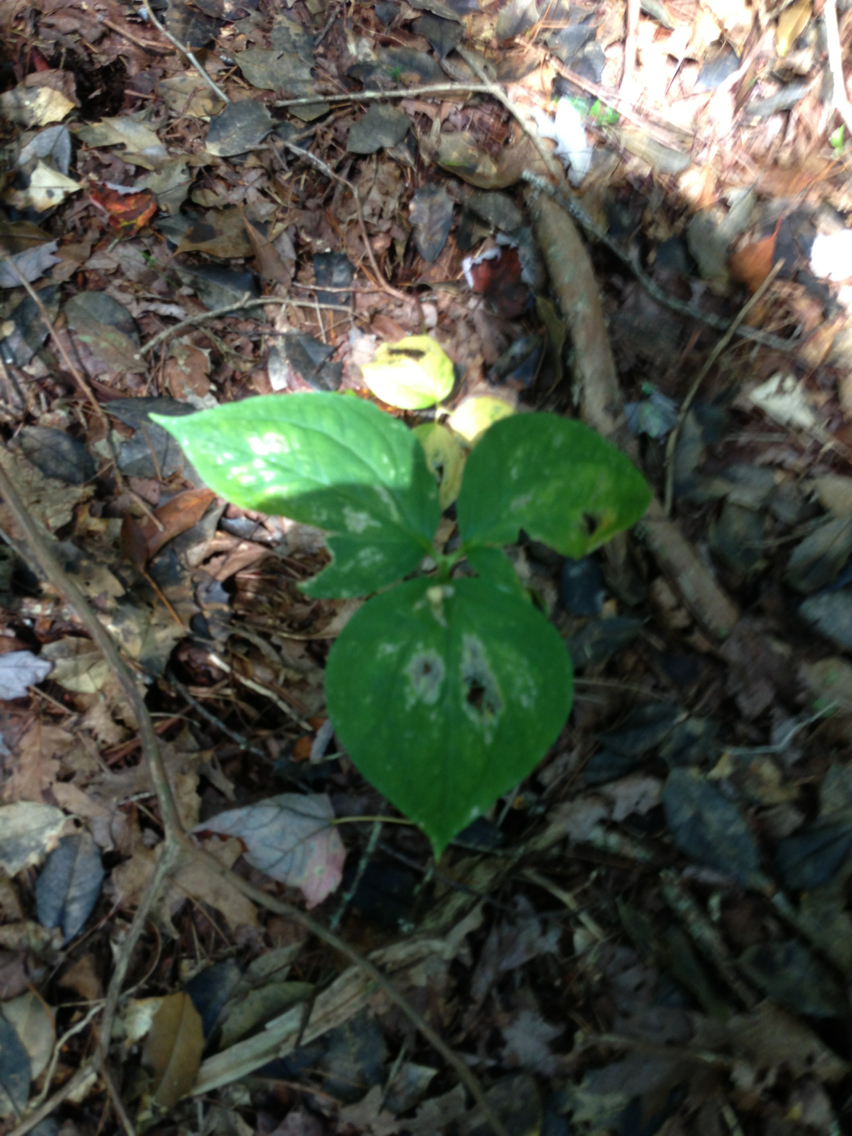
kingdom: Plantae
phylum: Tracheophyta
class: Liliopsida
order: Liliales
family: Melanthiaceae
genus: Trillium
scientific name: Trillium undulatum
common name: Paint trillium
